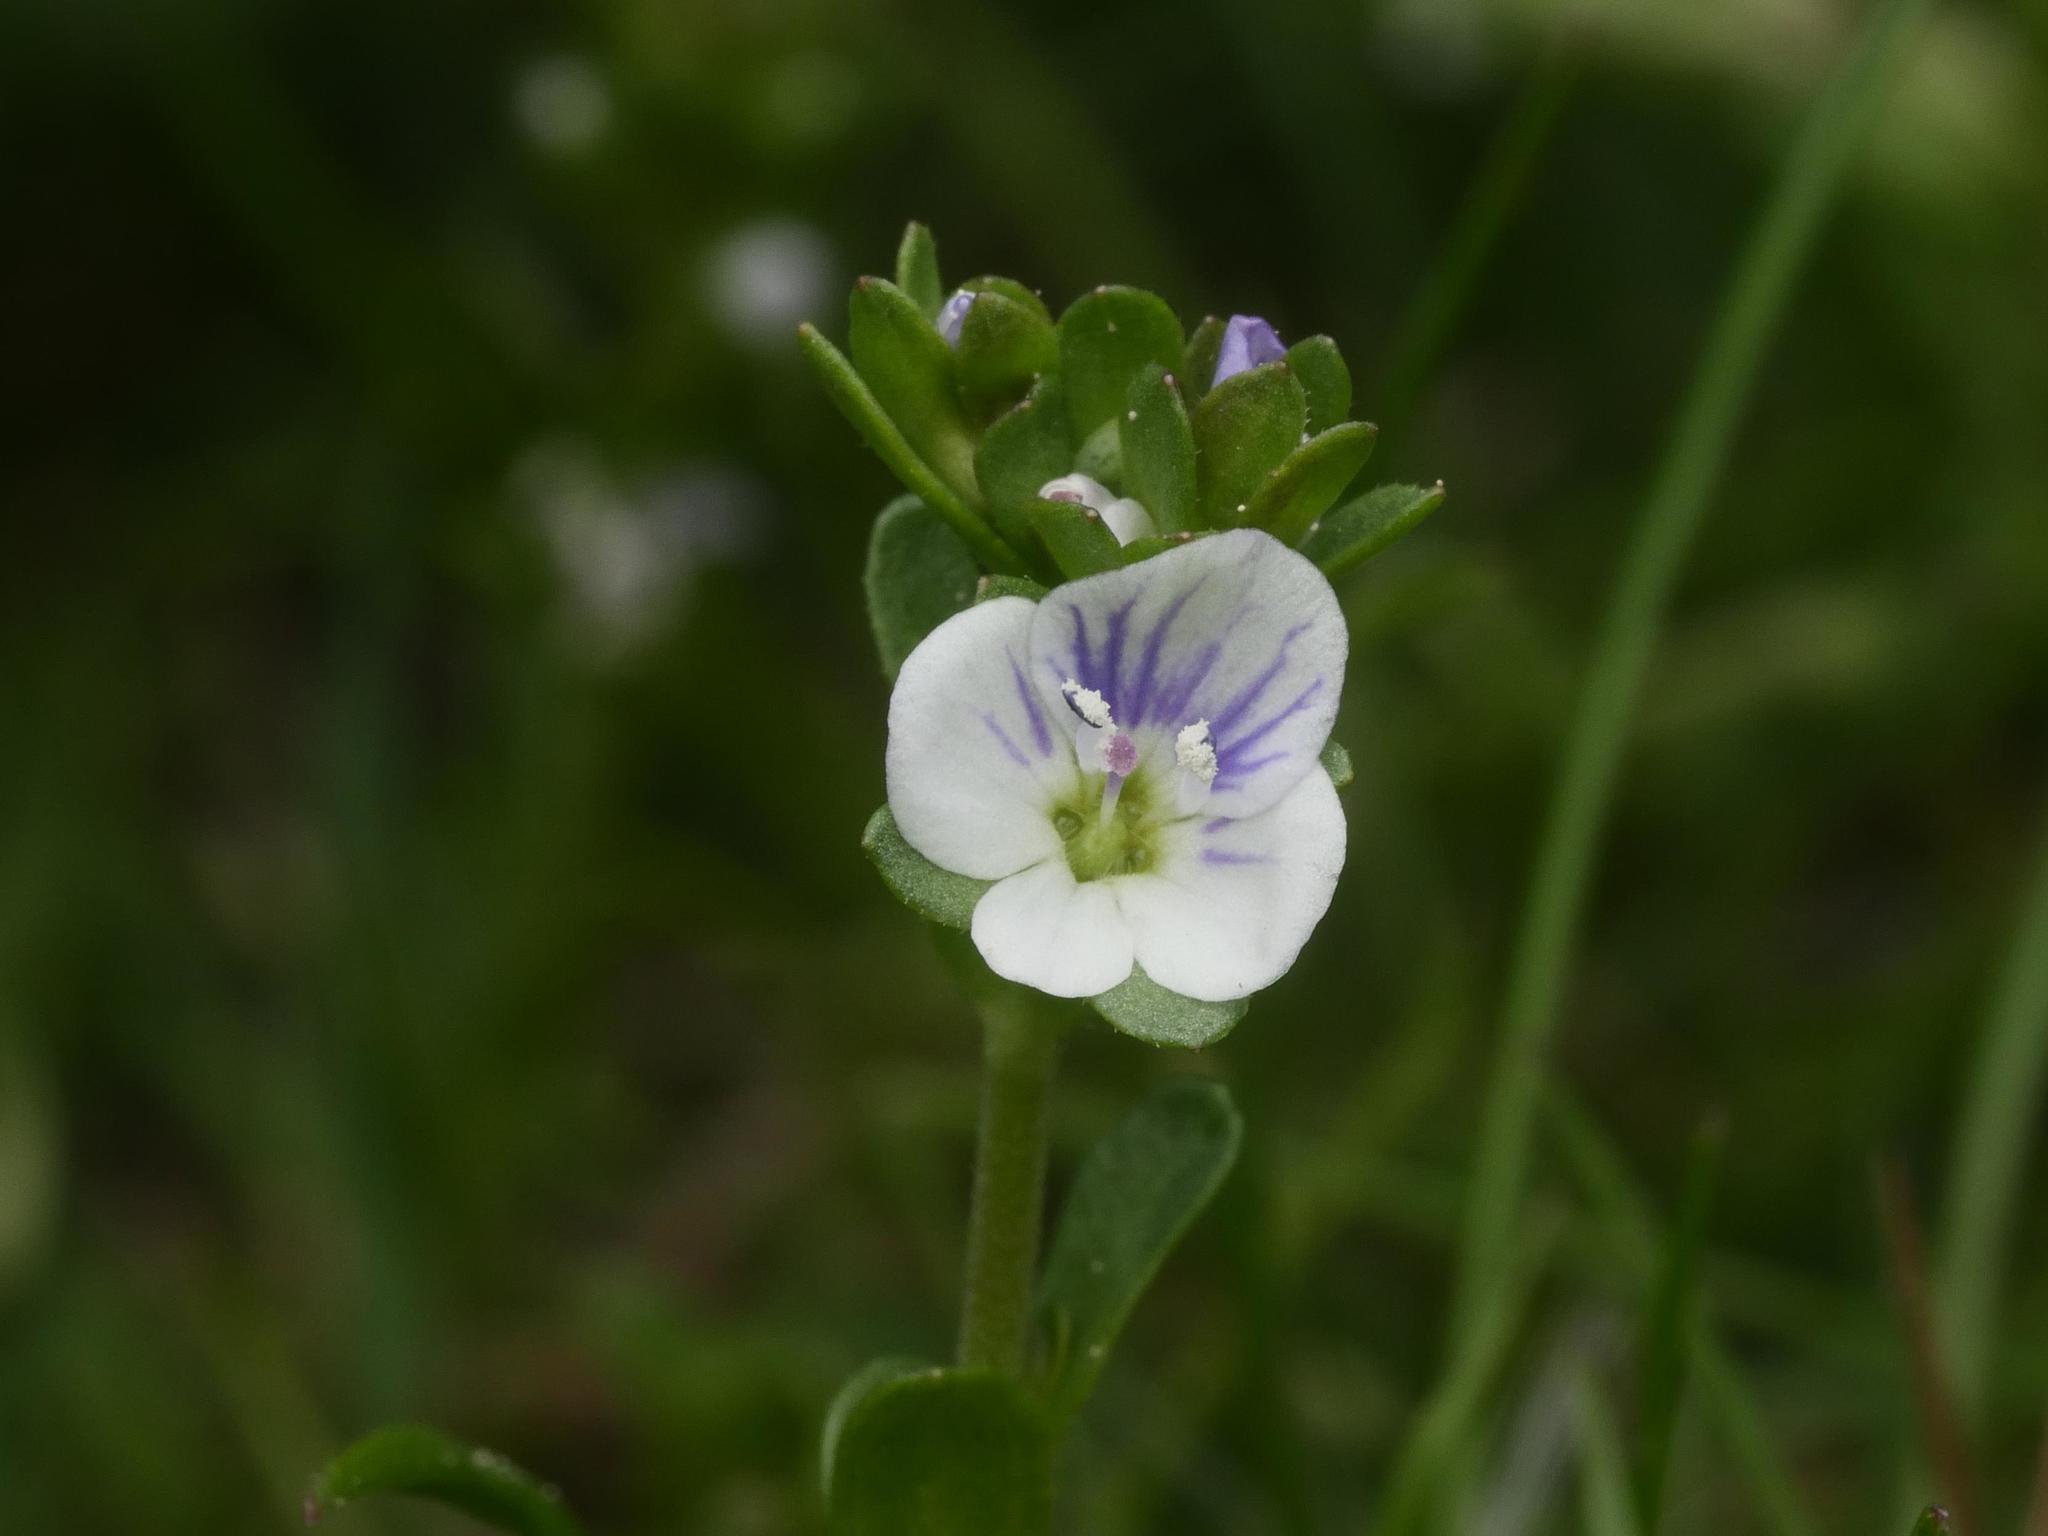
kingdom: Plantae
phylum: Tracheophyta
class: Magnoliopsida
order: Lamiales
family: Plantaginaceae
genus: Veronica
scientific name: Veronica serpyllifolia
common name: Thyme-leaved speedwell
